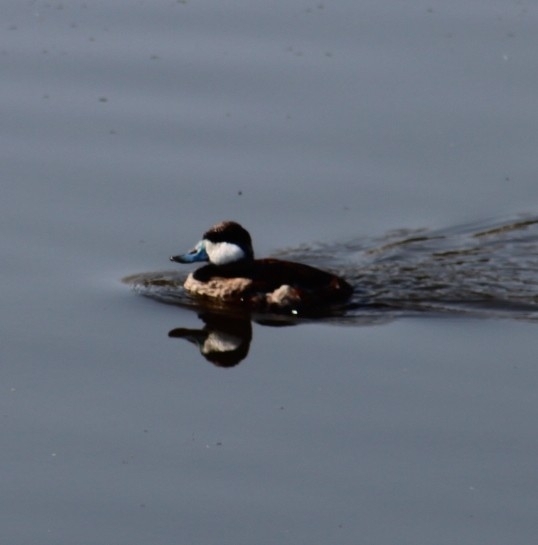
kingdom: Animalia
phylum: Chordata
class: Aves
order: Anseriformes
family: Anatidae
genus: Oxyura
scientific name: Oxyura jamaicensis
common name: Ruddy duck
